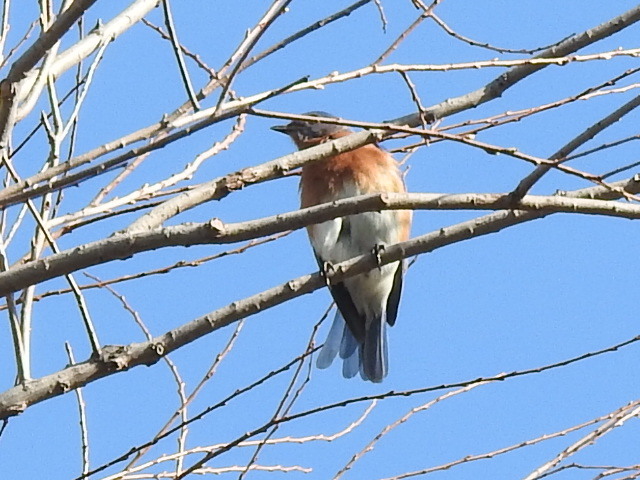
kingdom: Animalia
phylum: Chordata
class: Aves
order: Passeriformes
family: Turdidae
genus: Sialia
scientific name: Sialia sialis
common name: Eastern bluebird
